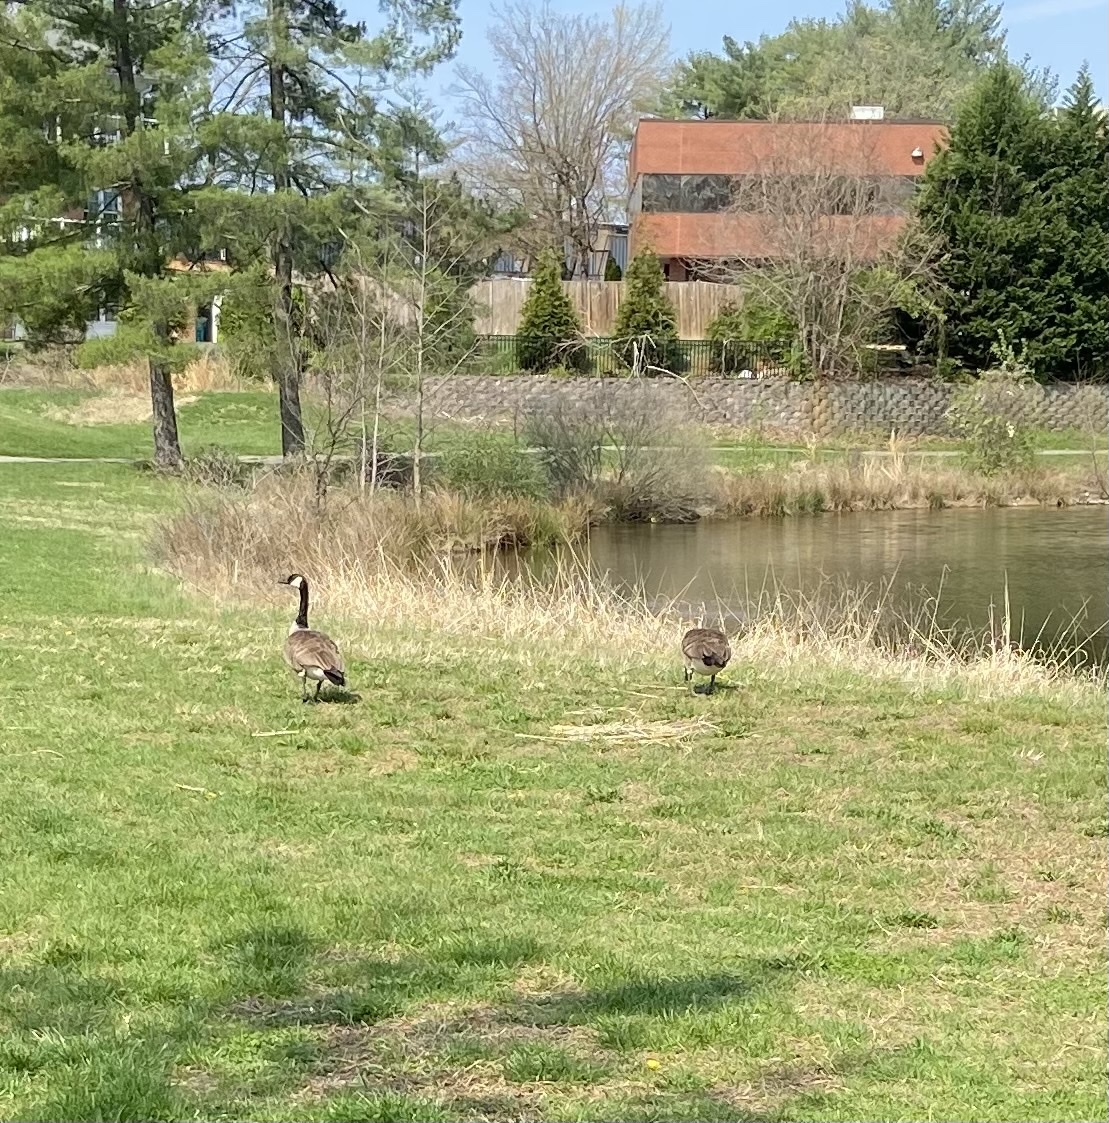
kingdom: Animalia
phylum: Chordata
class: Aves
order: Anseriformes
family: Anatidae
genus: Branta
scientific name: Branta canadensis
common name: Canada goose
